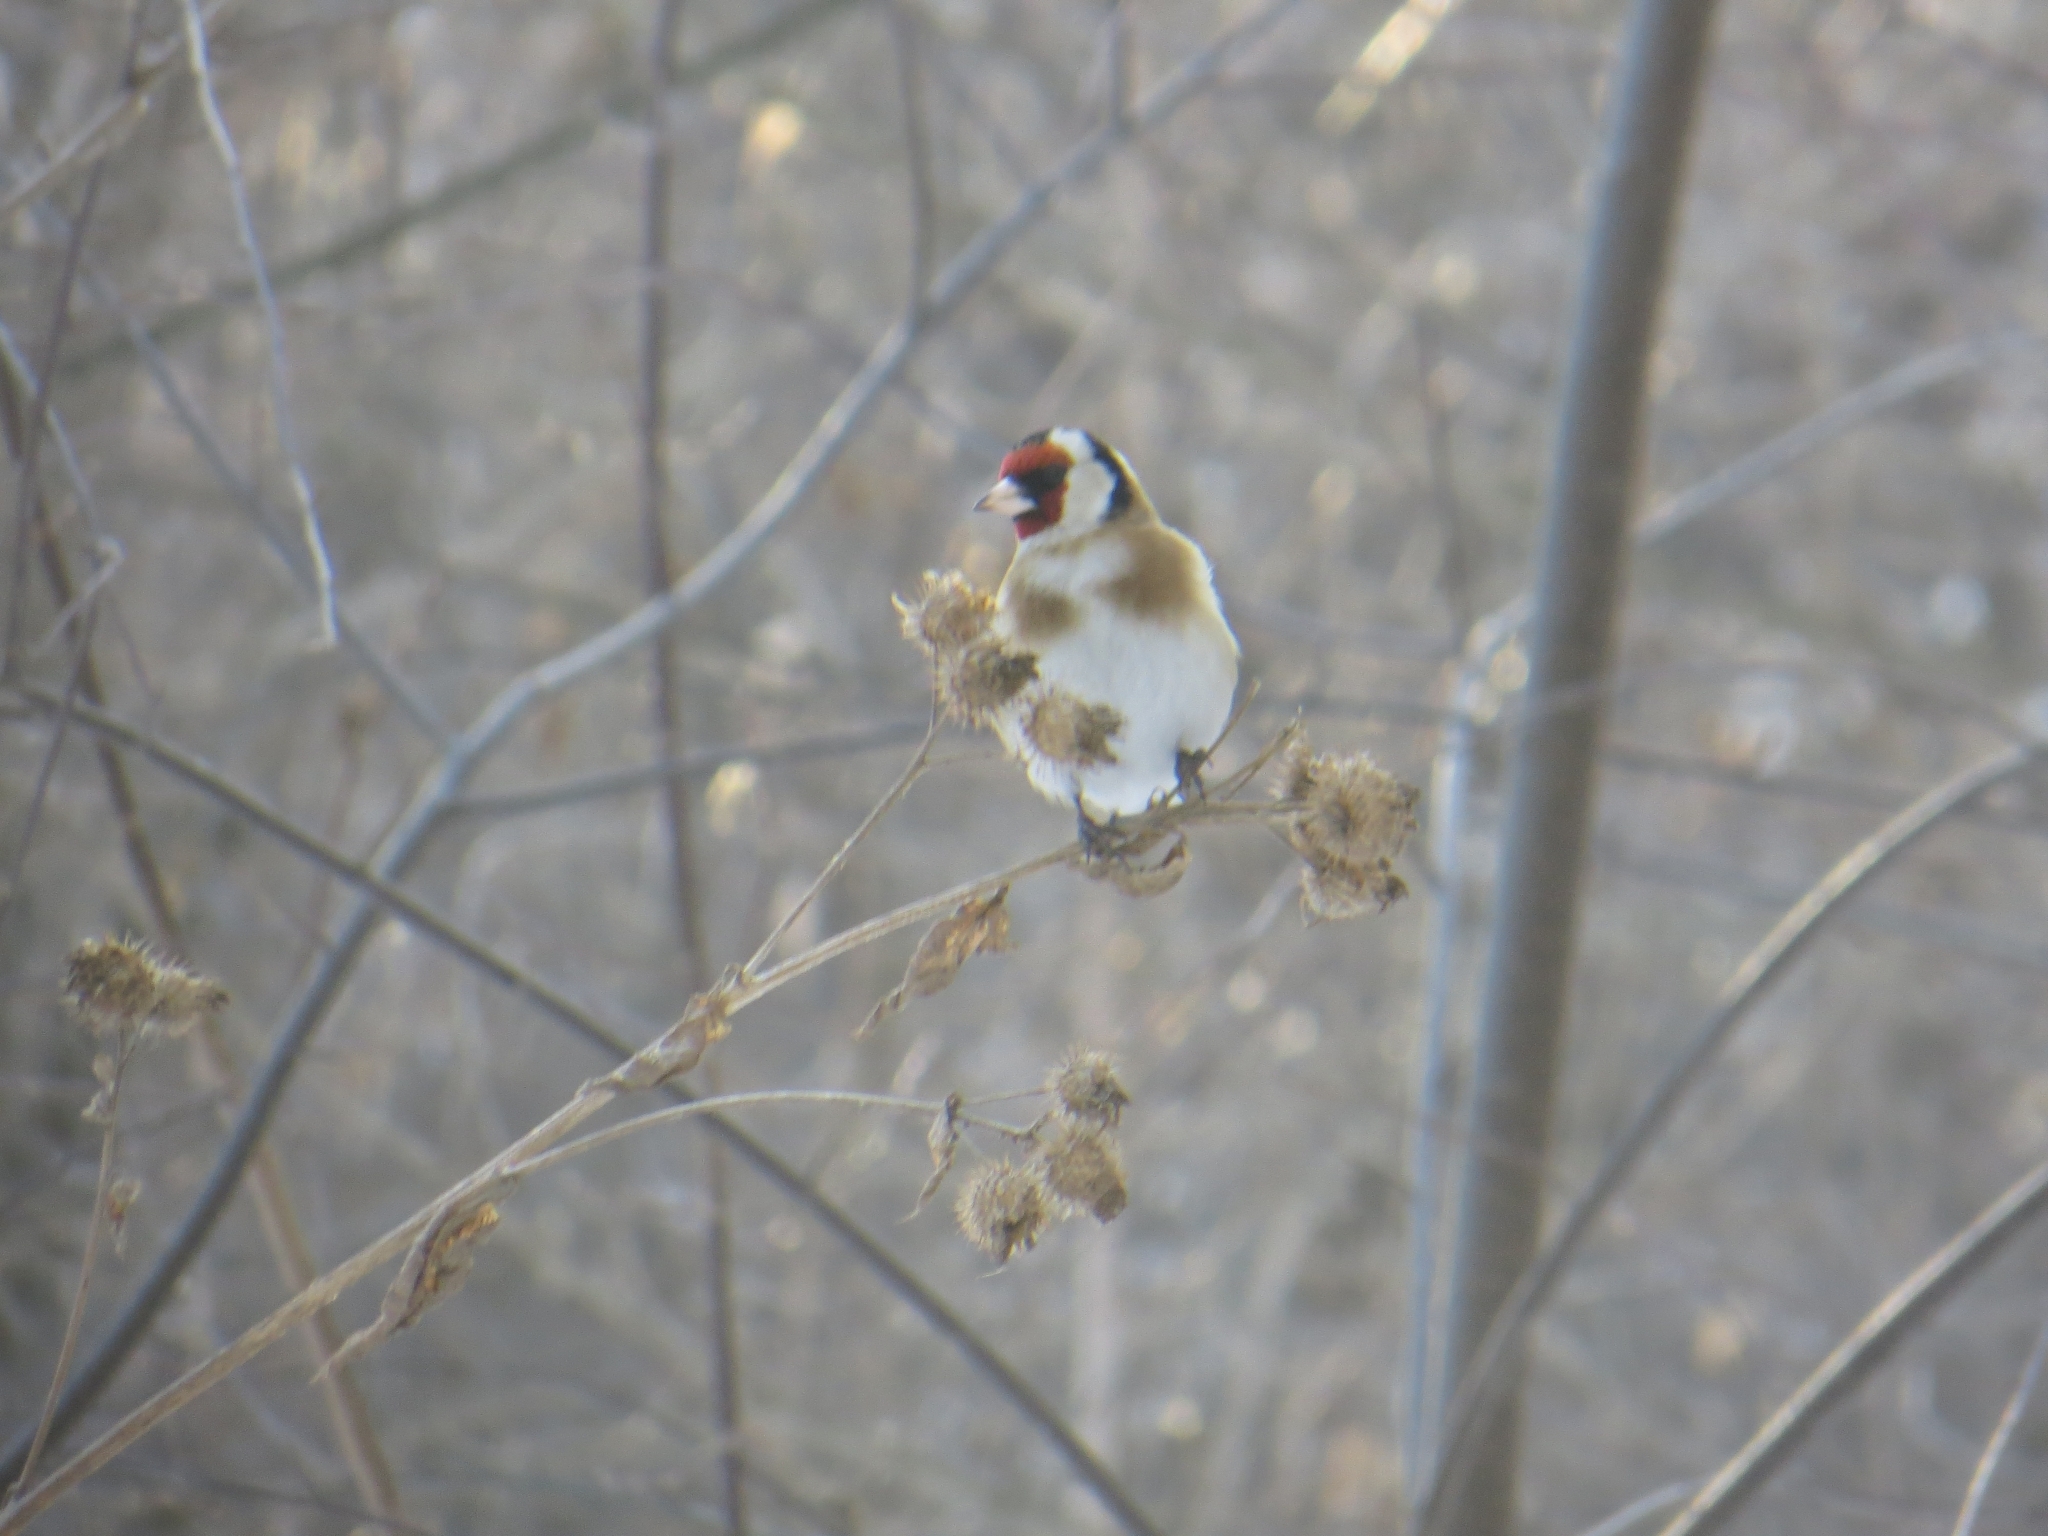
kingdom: Animalia
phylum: Chordata
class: Aves
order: Passeriformes
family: Fringillidae
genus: Carduelis
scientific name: Carduelis carduelis
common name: European goldfinch
